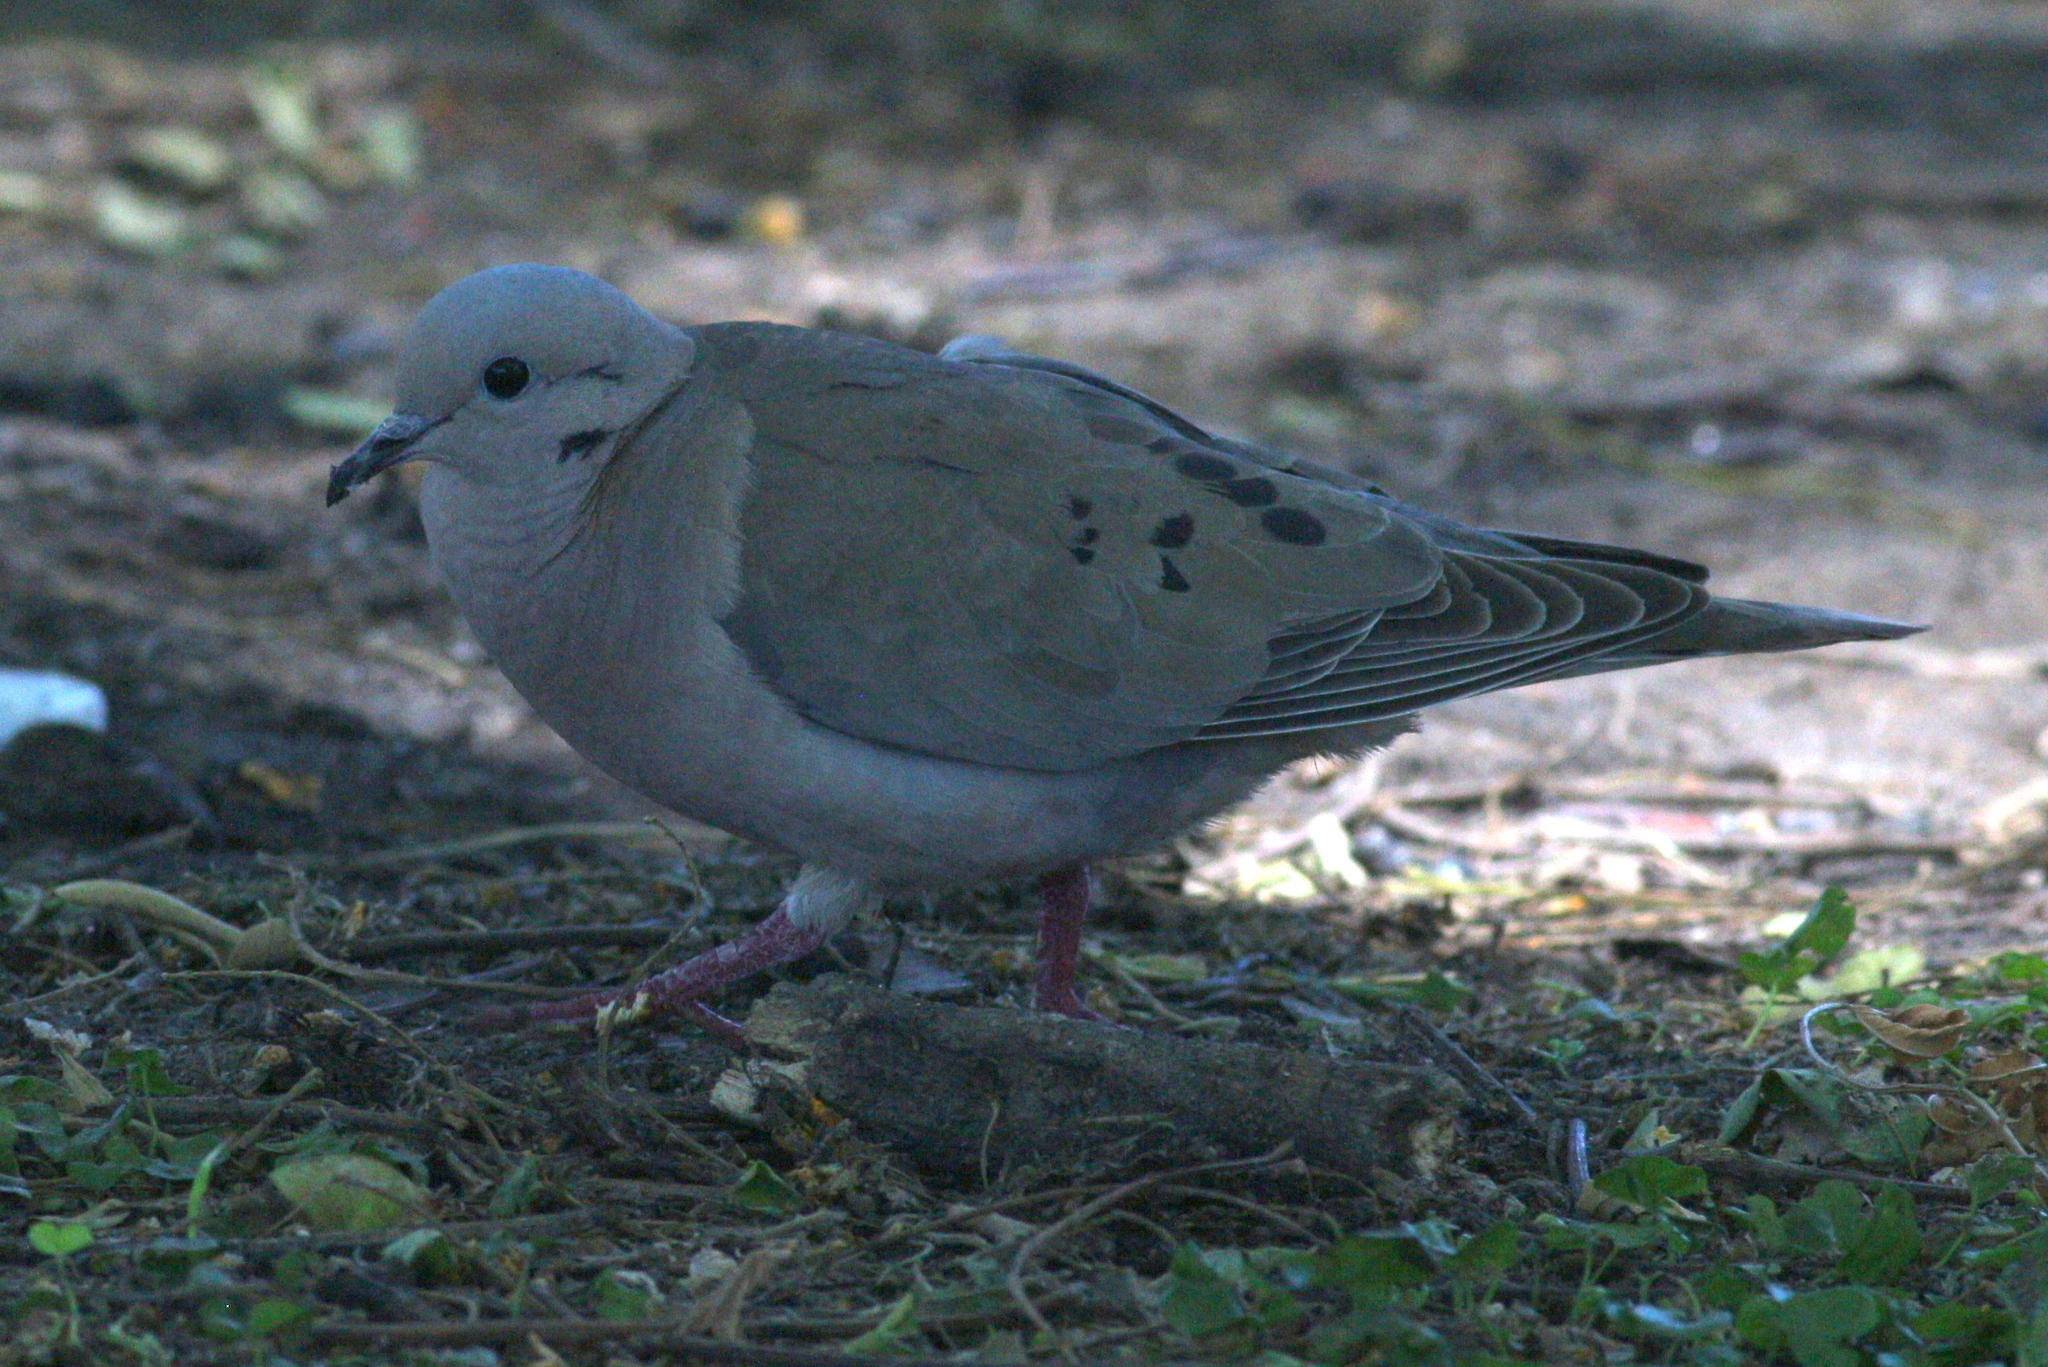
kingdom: Animalia
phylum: Chordata
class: Aves
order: Columbiformes
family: Columbidae
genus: Zenaida
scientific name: Zenaida auriculata
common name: Eared dove
